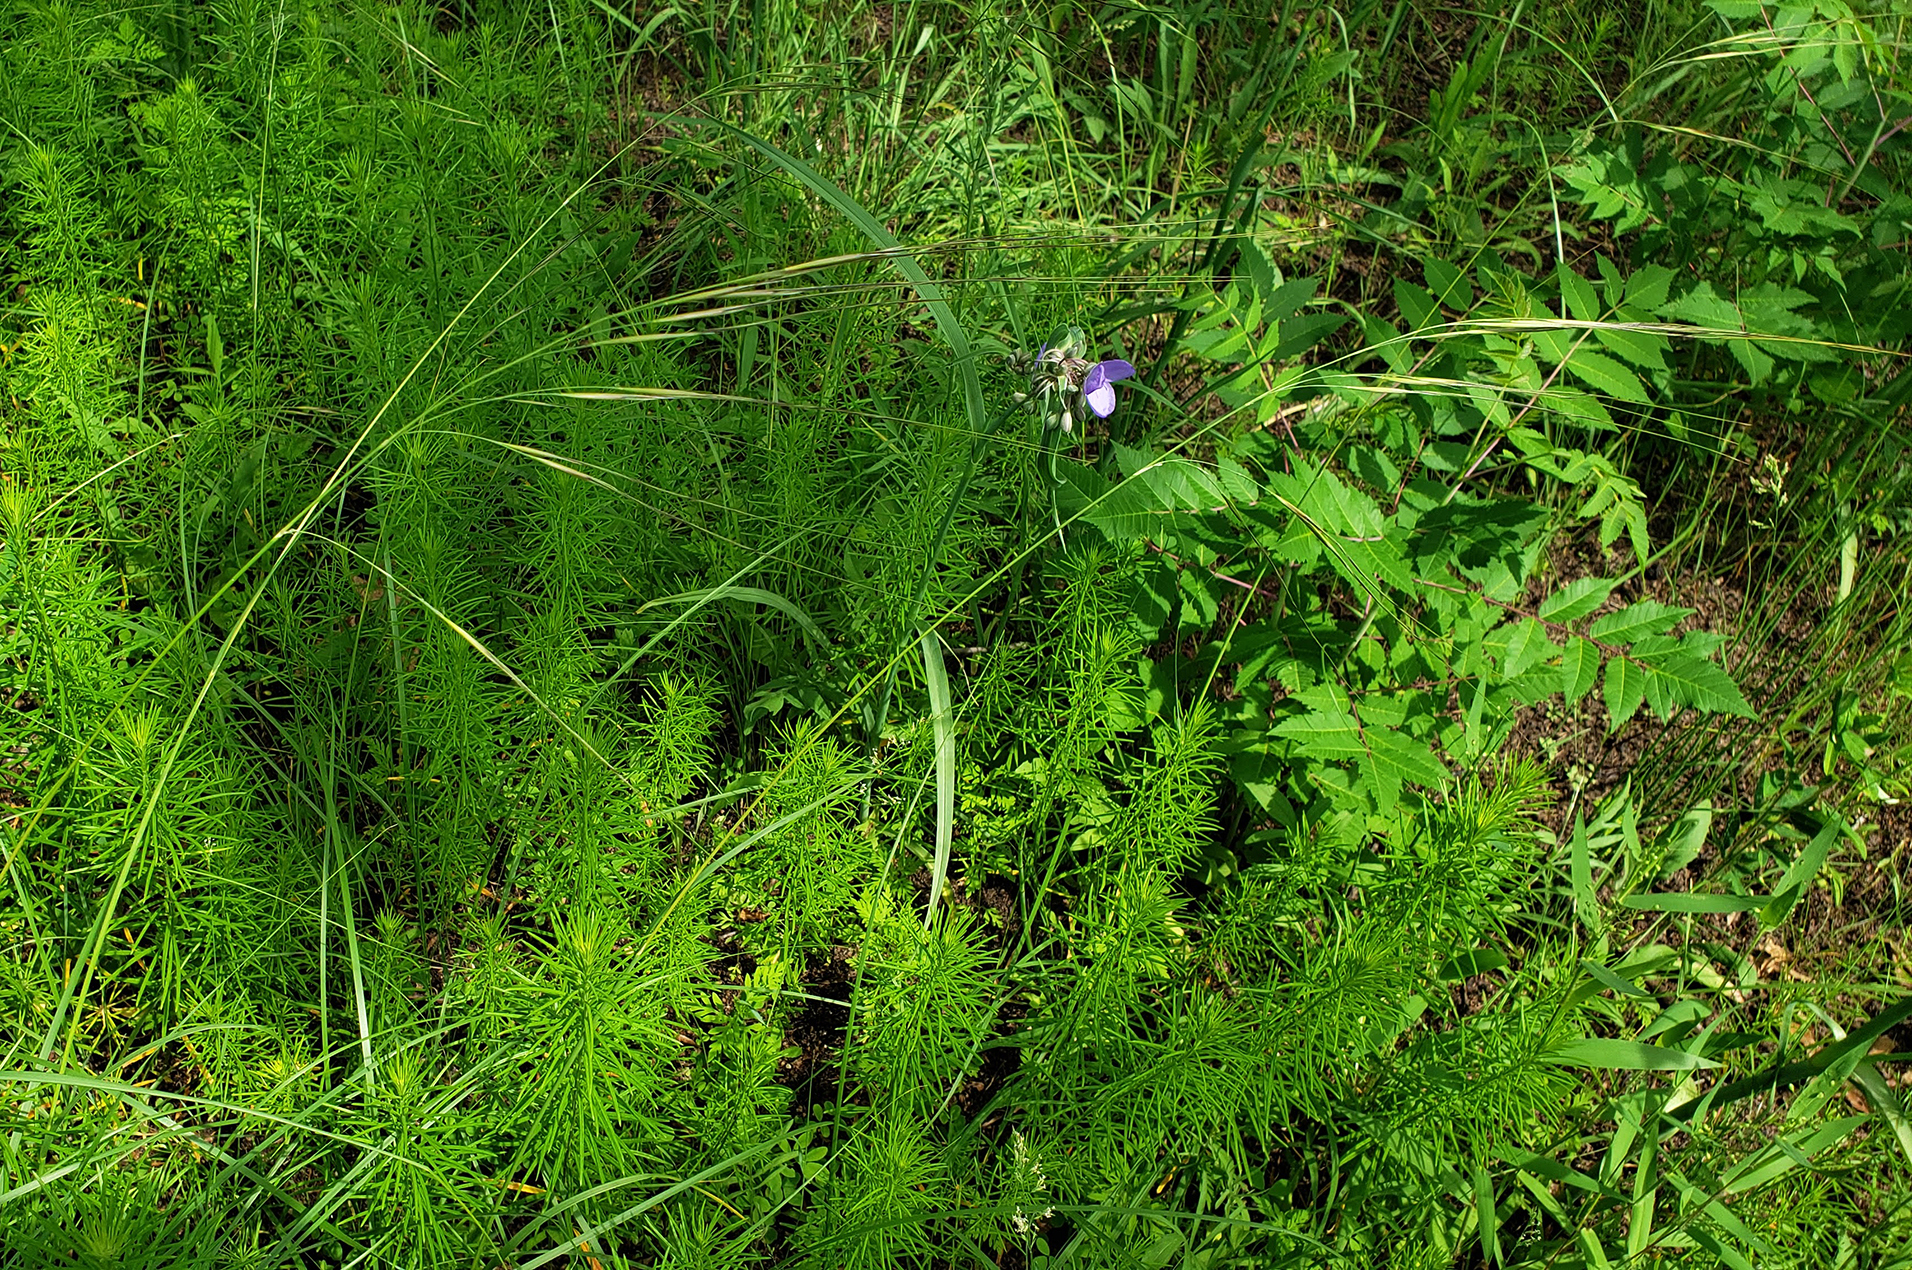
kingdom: Plantae
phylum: Tracheophyta
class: Liliopsida
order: Poales
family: Poaceae
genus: Hesperostipa
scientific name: Hesperostipa spartea
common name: Porcupine grass
